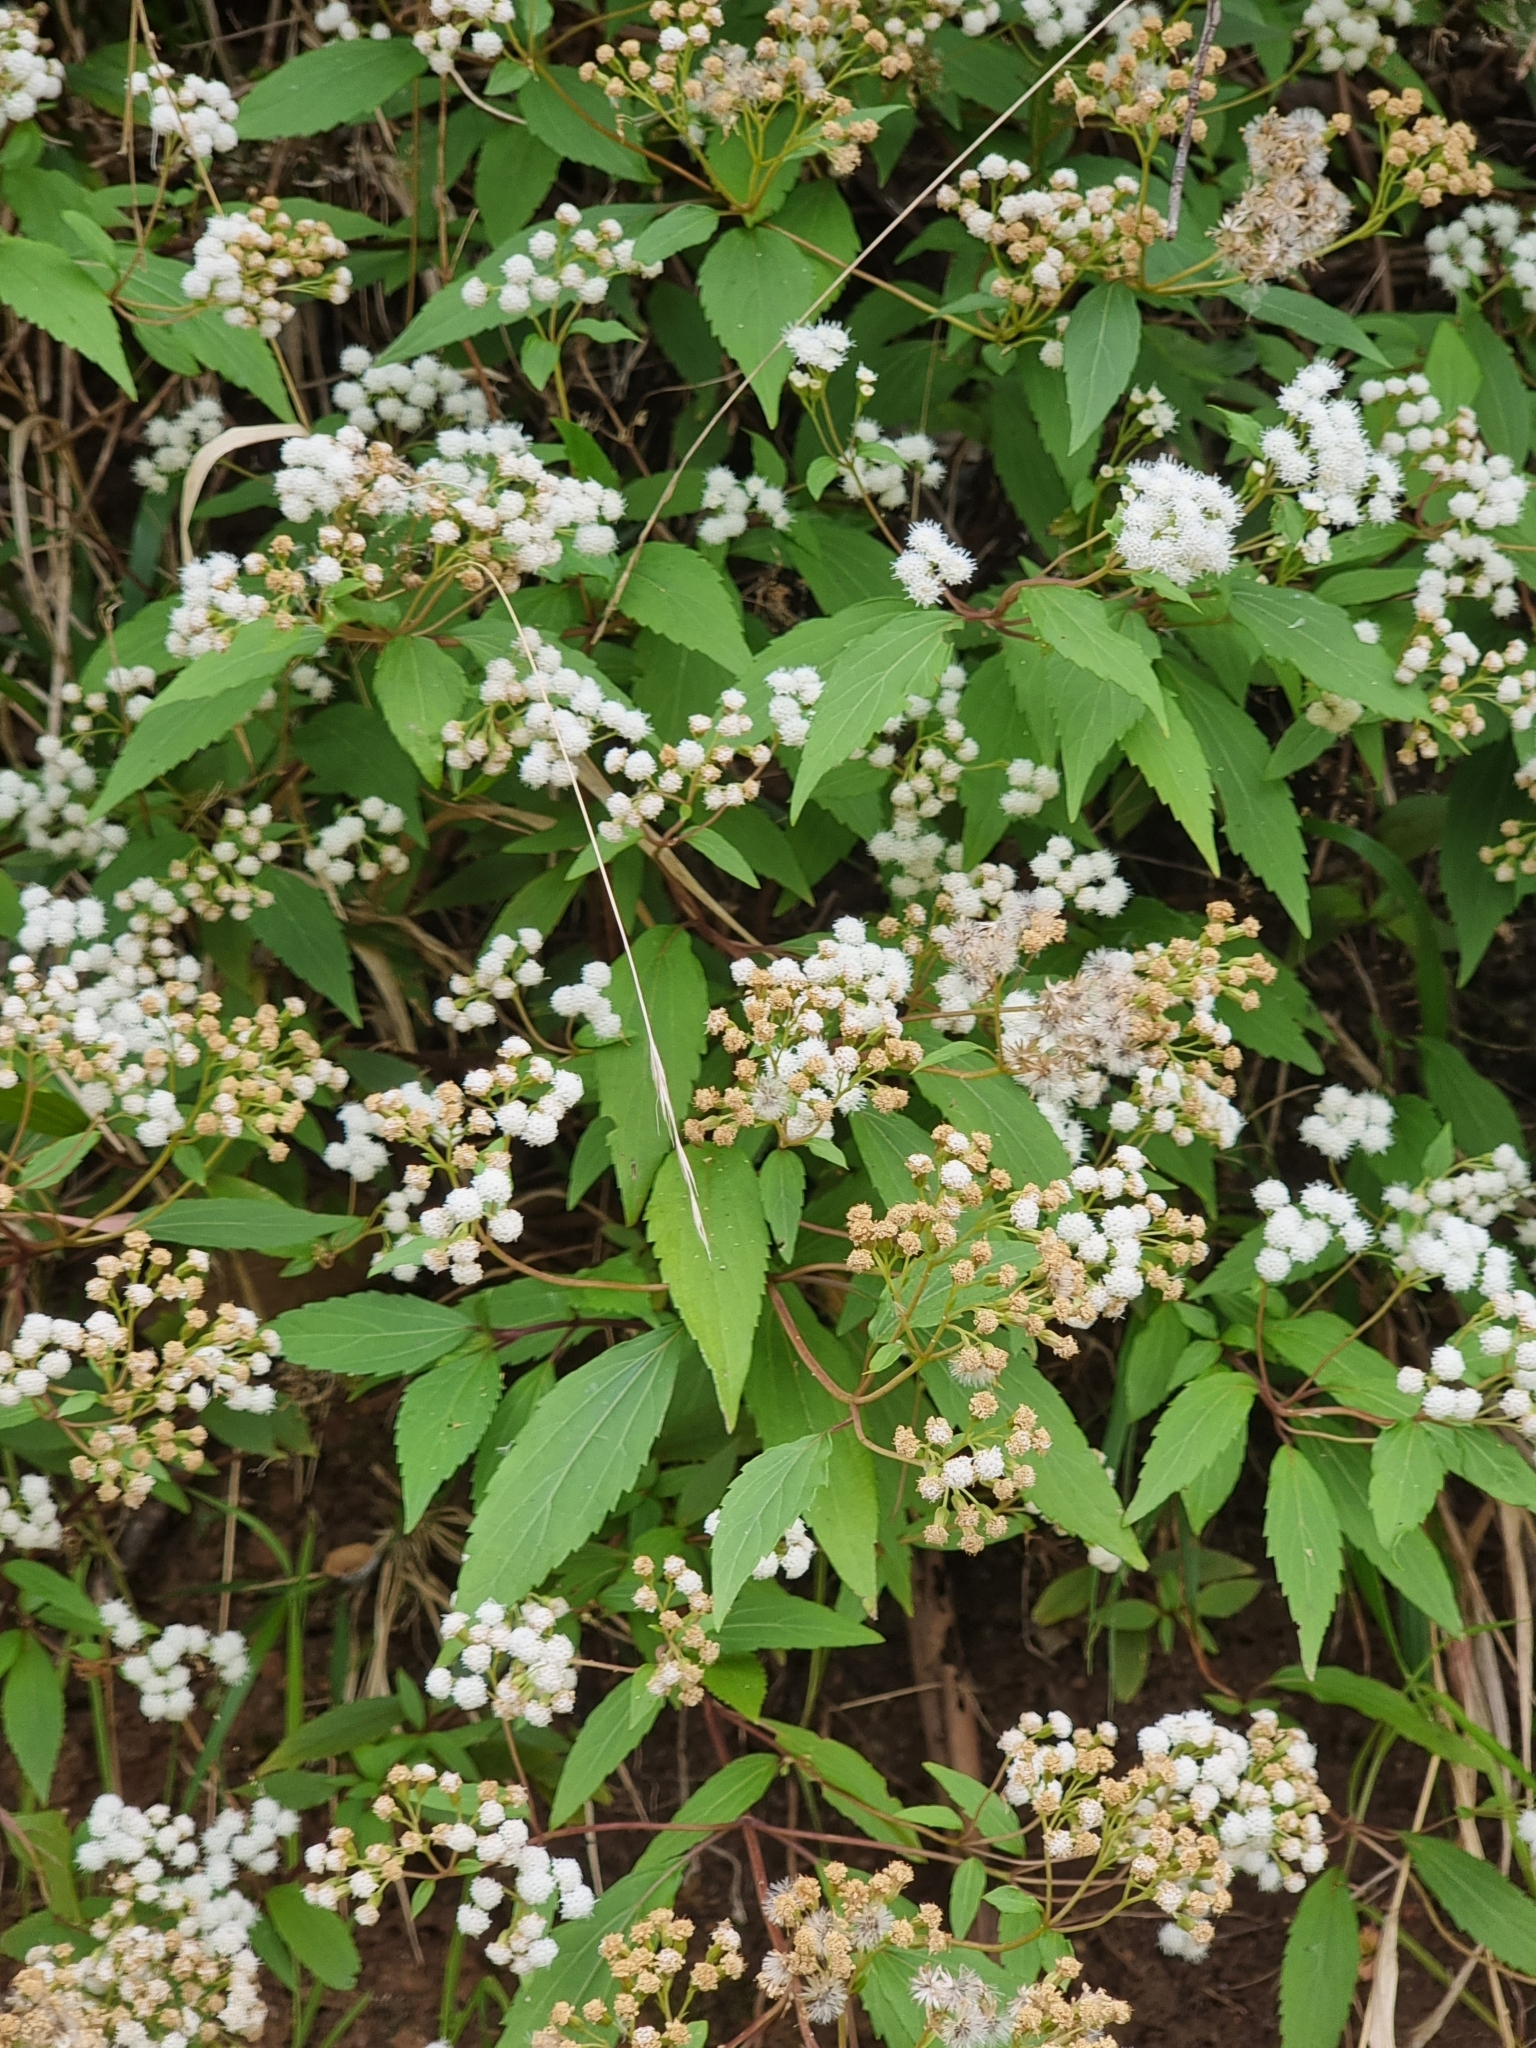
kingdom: Plantae
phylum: Tracheophyta
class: Magnoliopsida
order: Asterales
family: Asteraceae
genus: Ageratina
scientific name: Ageratina riparia
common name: Creeping croftonweed
